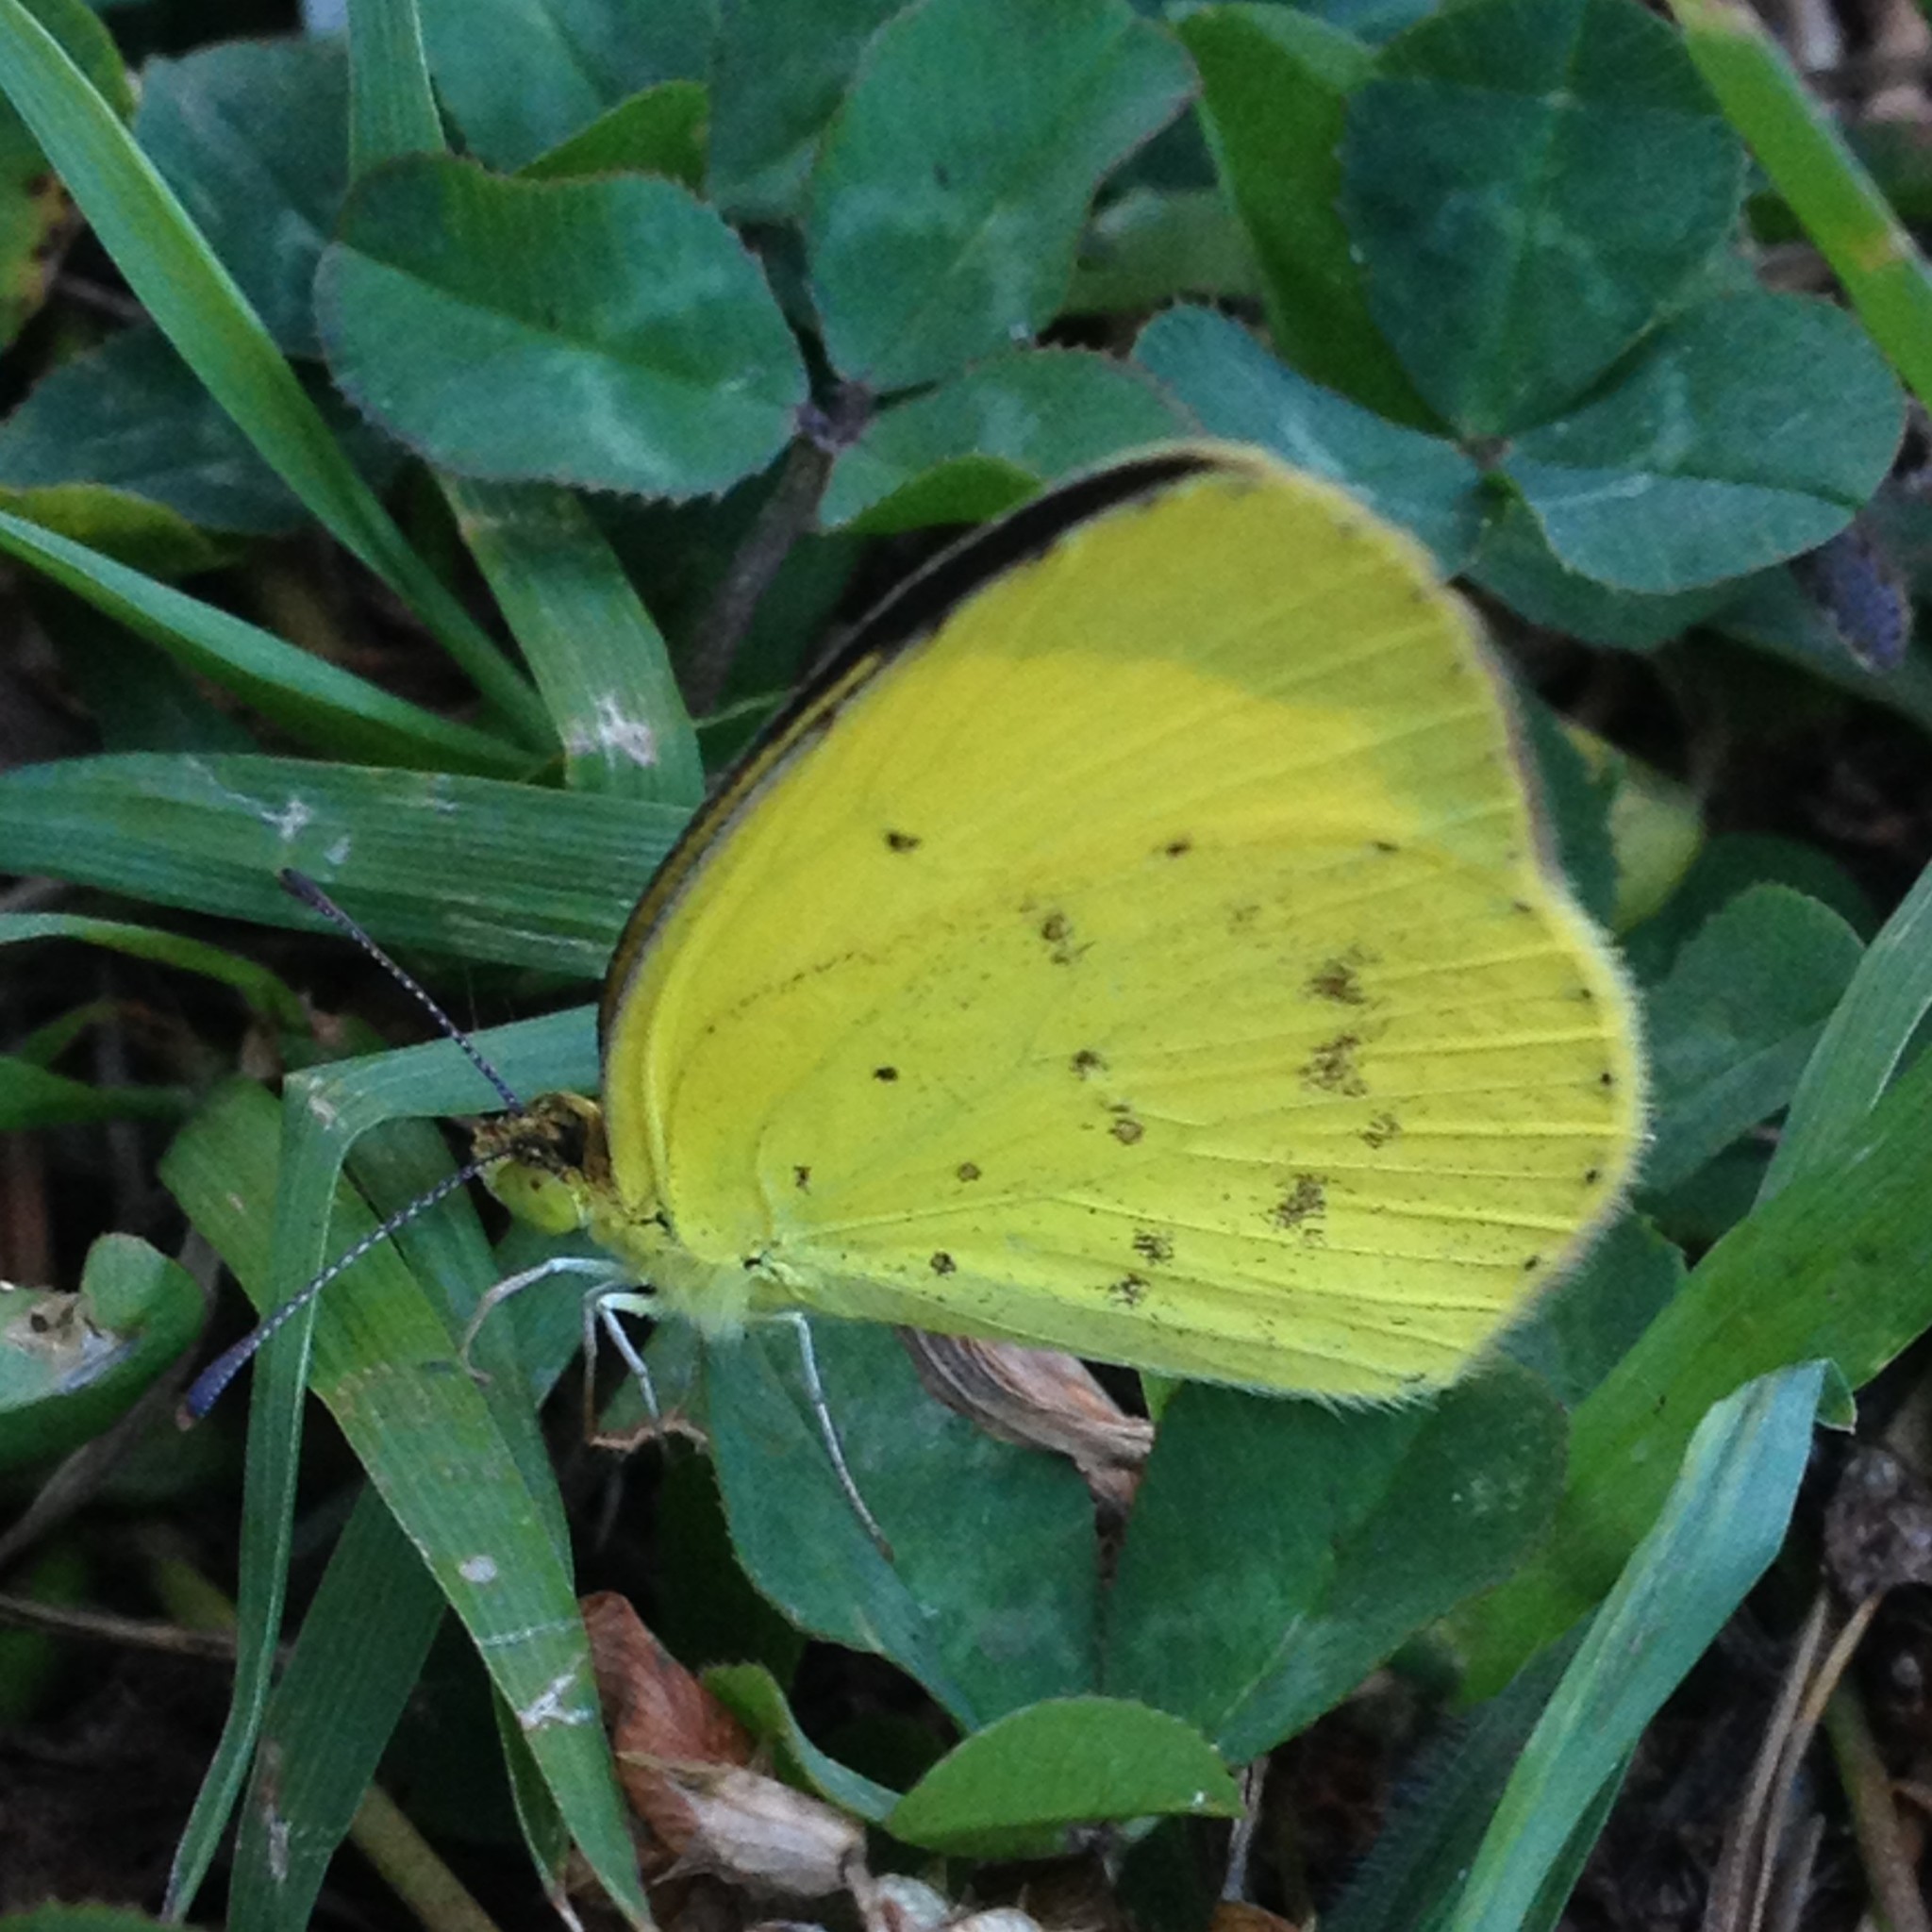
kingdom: Animalia
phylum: Arthropoda
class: Insecta
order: Lepidoptera
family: Pieridae
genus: Eurema
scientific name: Eurema smilax
